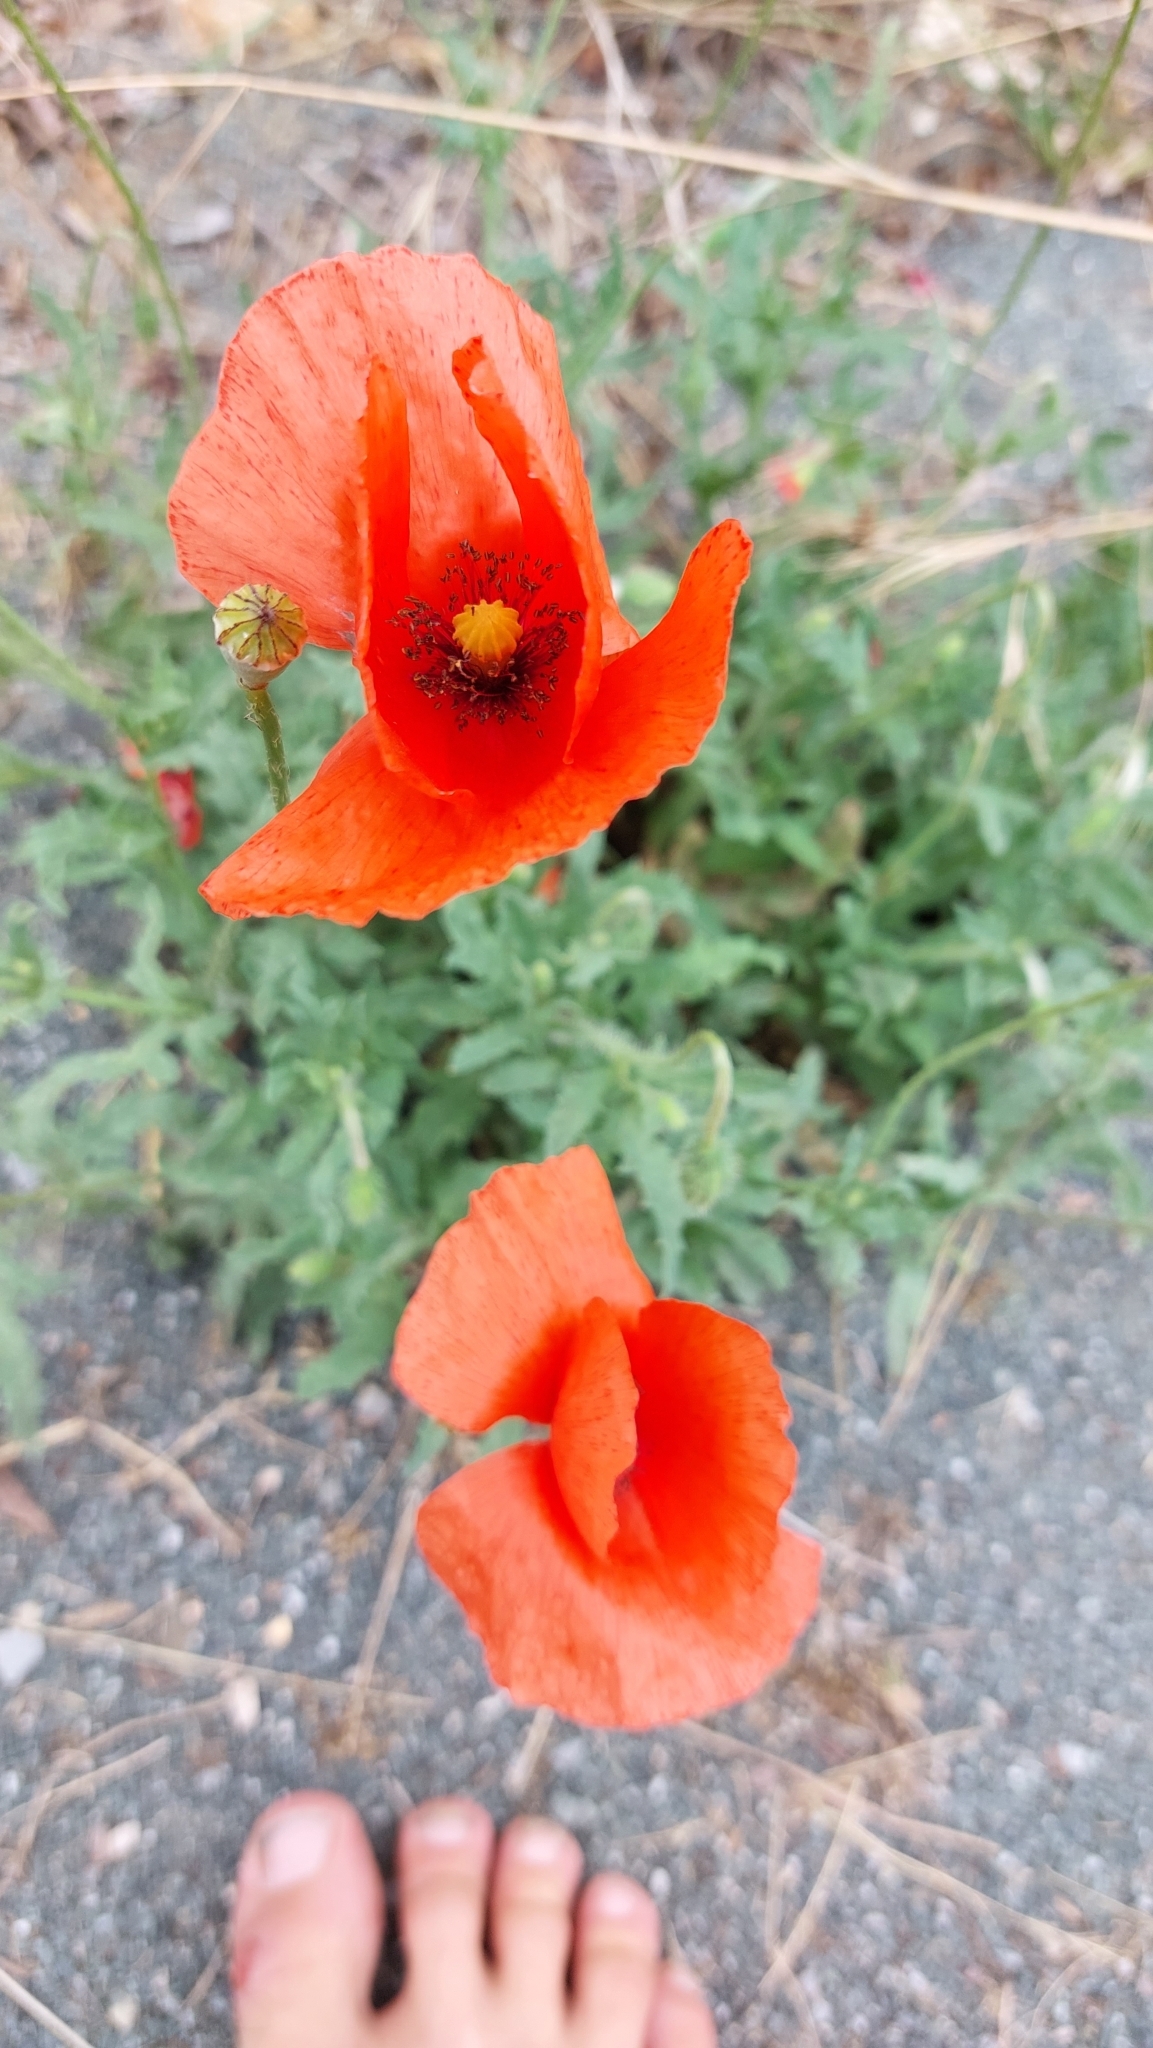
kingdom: Plantae
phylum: Tracheophyta
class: Magnoliopsida
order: Ranunculales
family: Papaveraceae
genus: Papaver
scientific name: Papaver rhoeas
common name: Corn poppy
